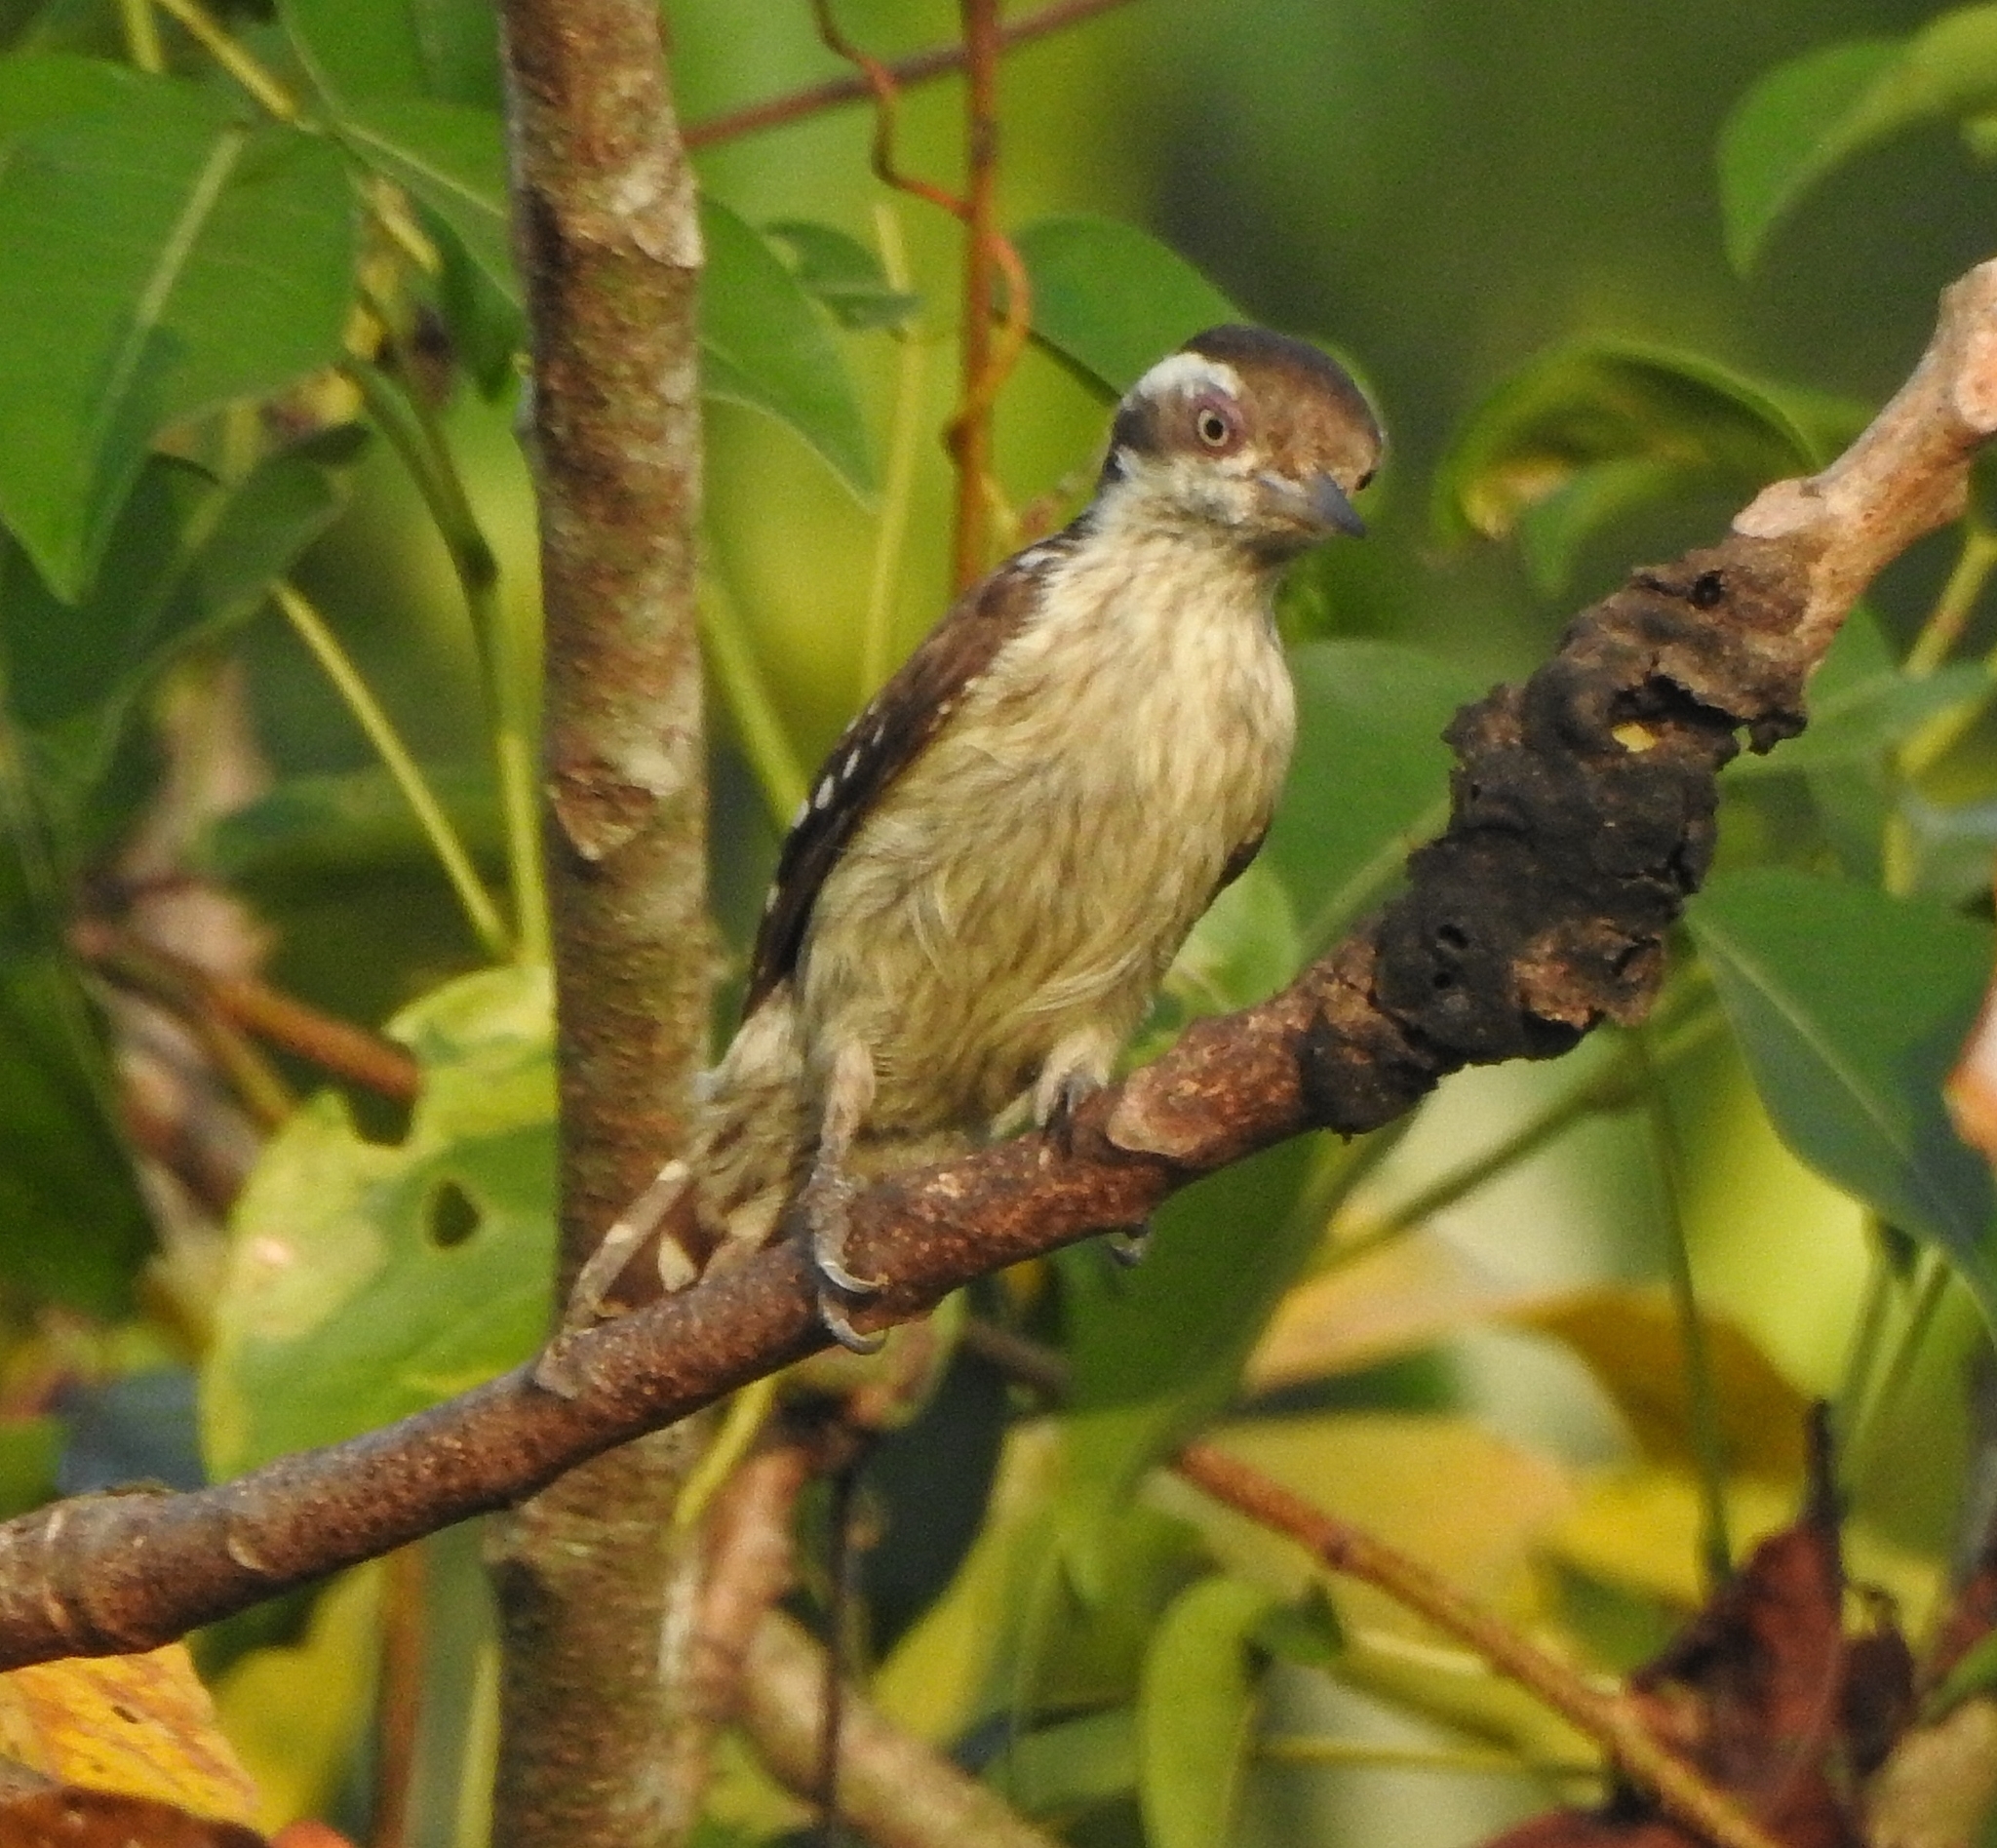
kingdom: Animalia
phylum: Chordata
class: Aves
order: Piciformes
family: Picidae
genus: Yungipicus
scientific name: Yungipicus nanus
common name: Brown-capped pygmy woodpecker
